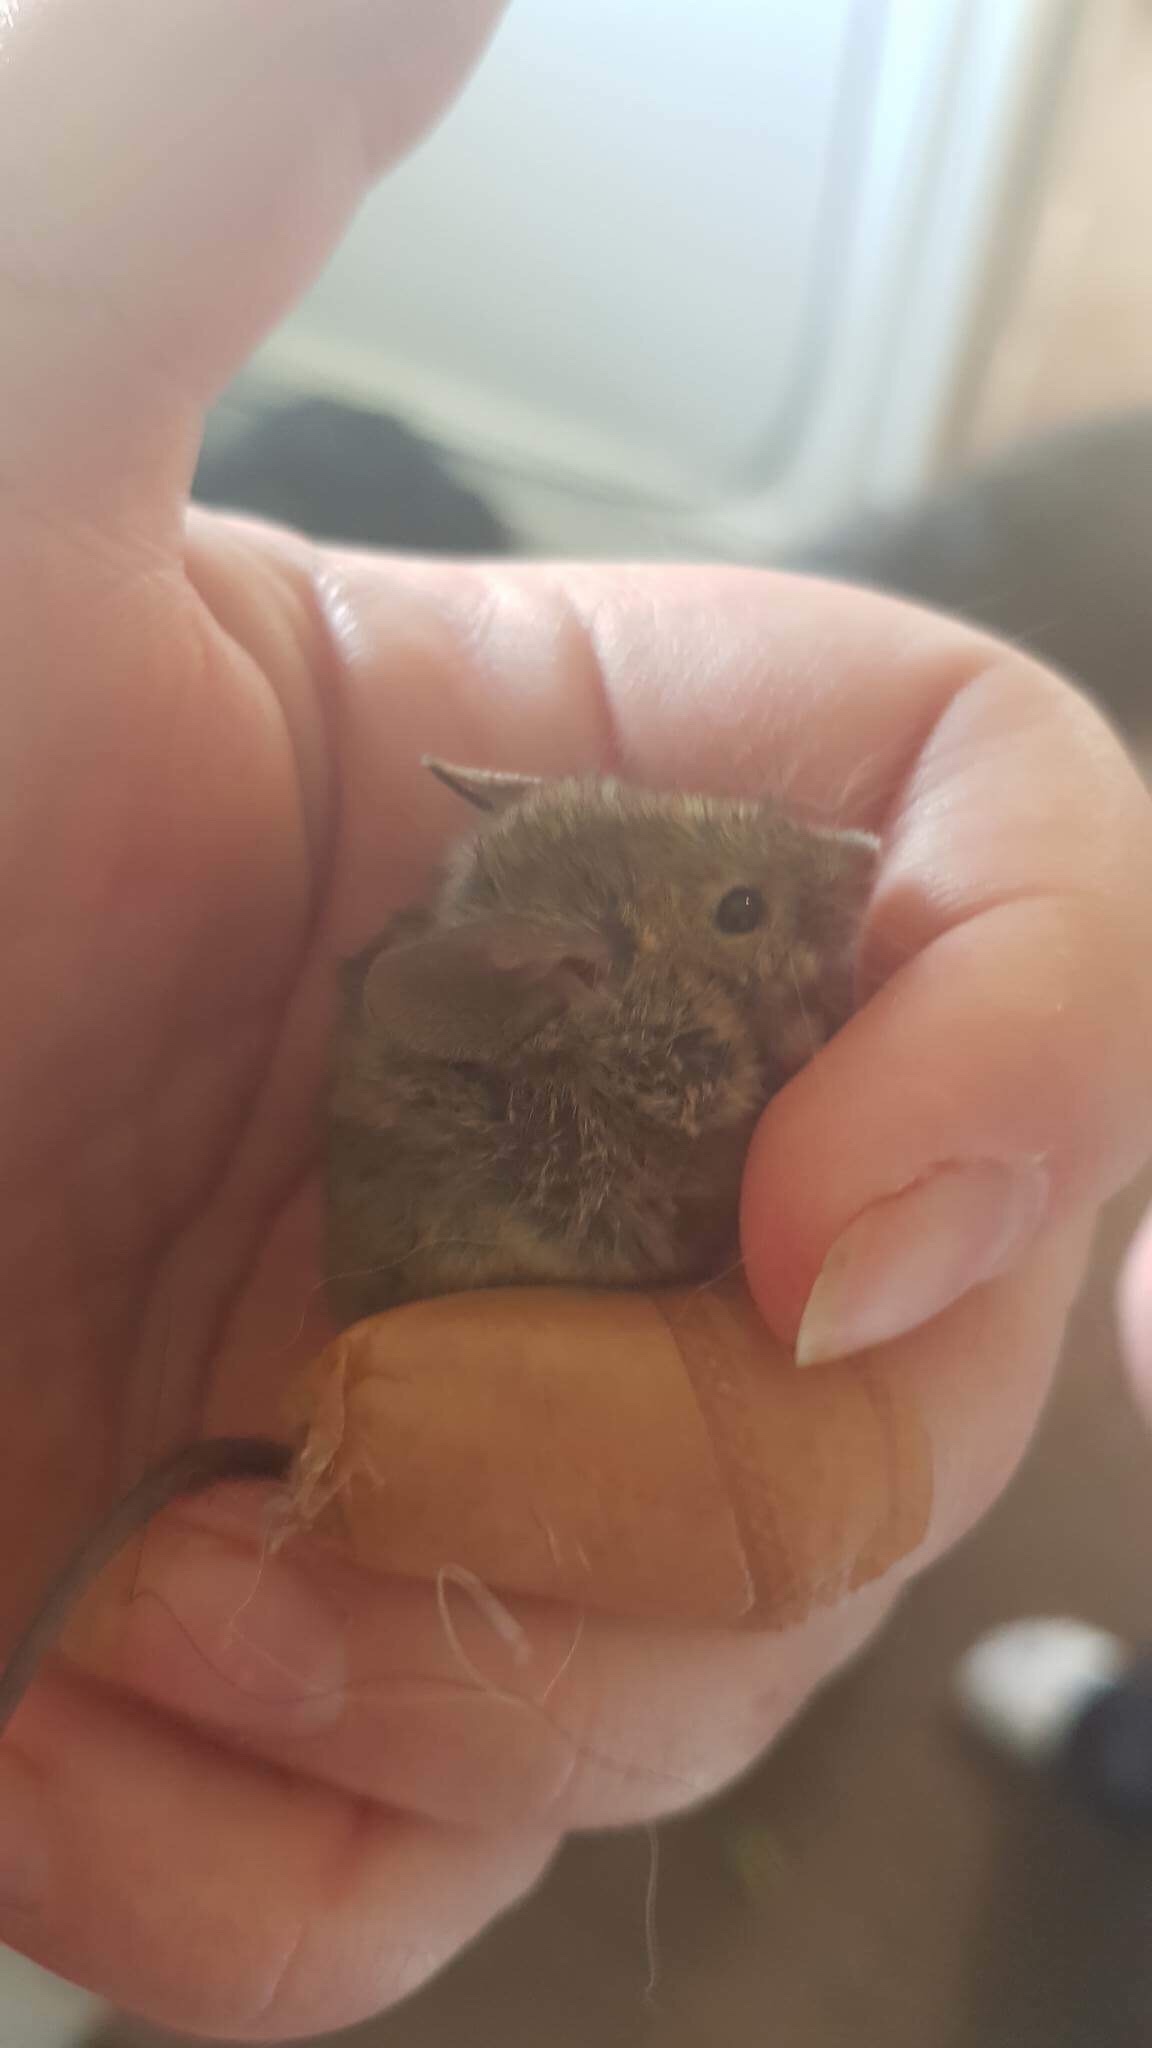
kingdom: Animalia
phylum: Chordata
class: Mammalia
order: Rodentia
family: Muridae
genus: Mus
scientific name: Mus musculus
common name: House mouse
